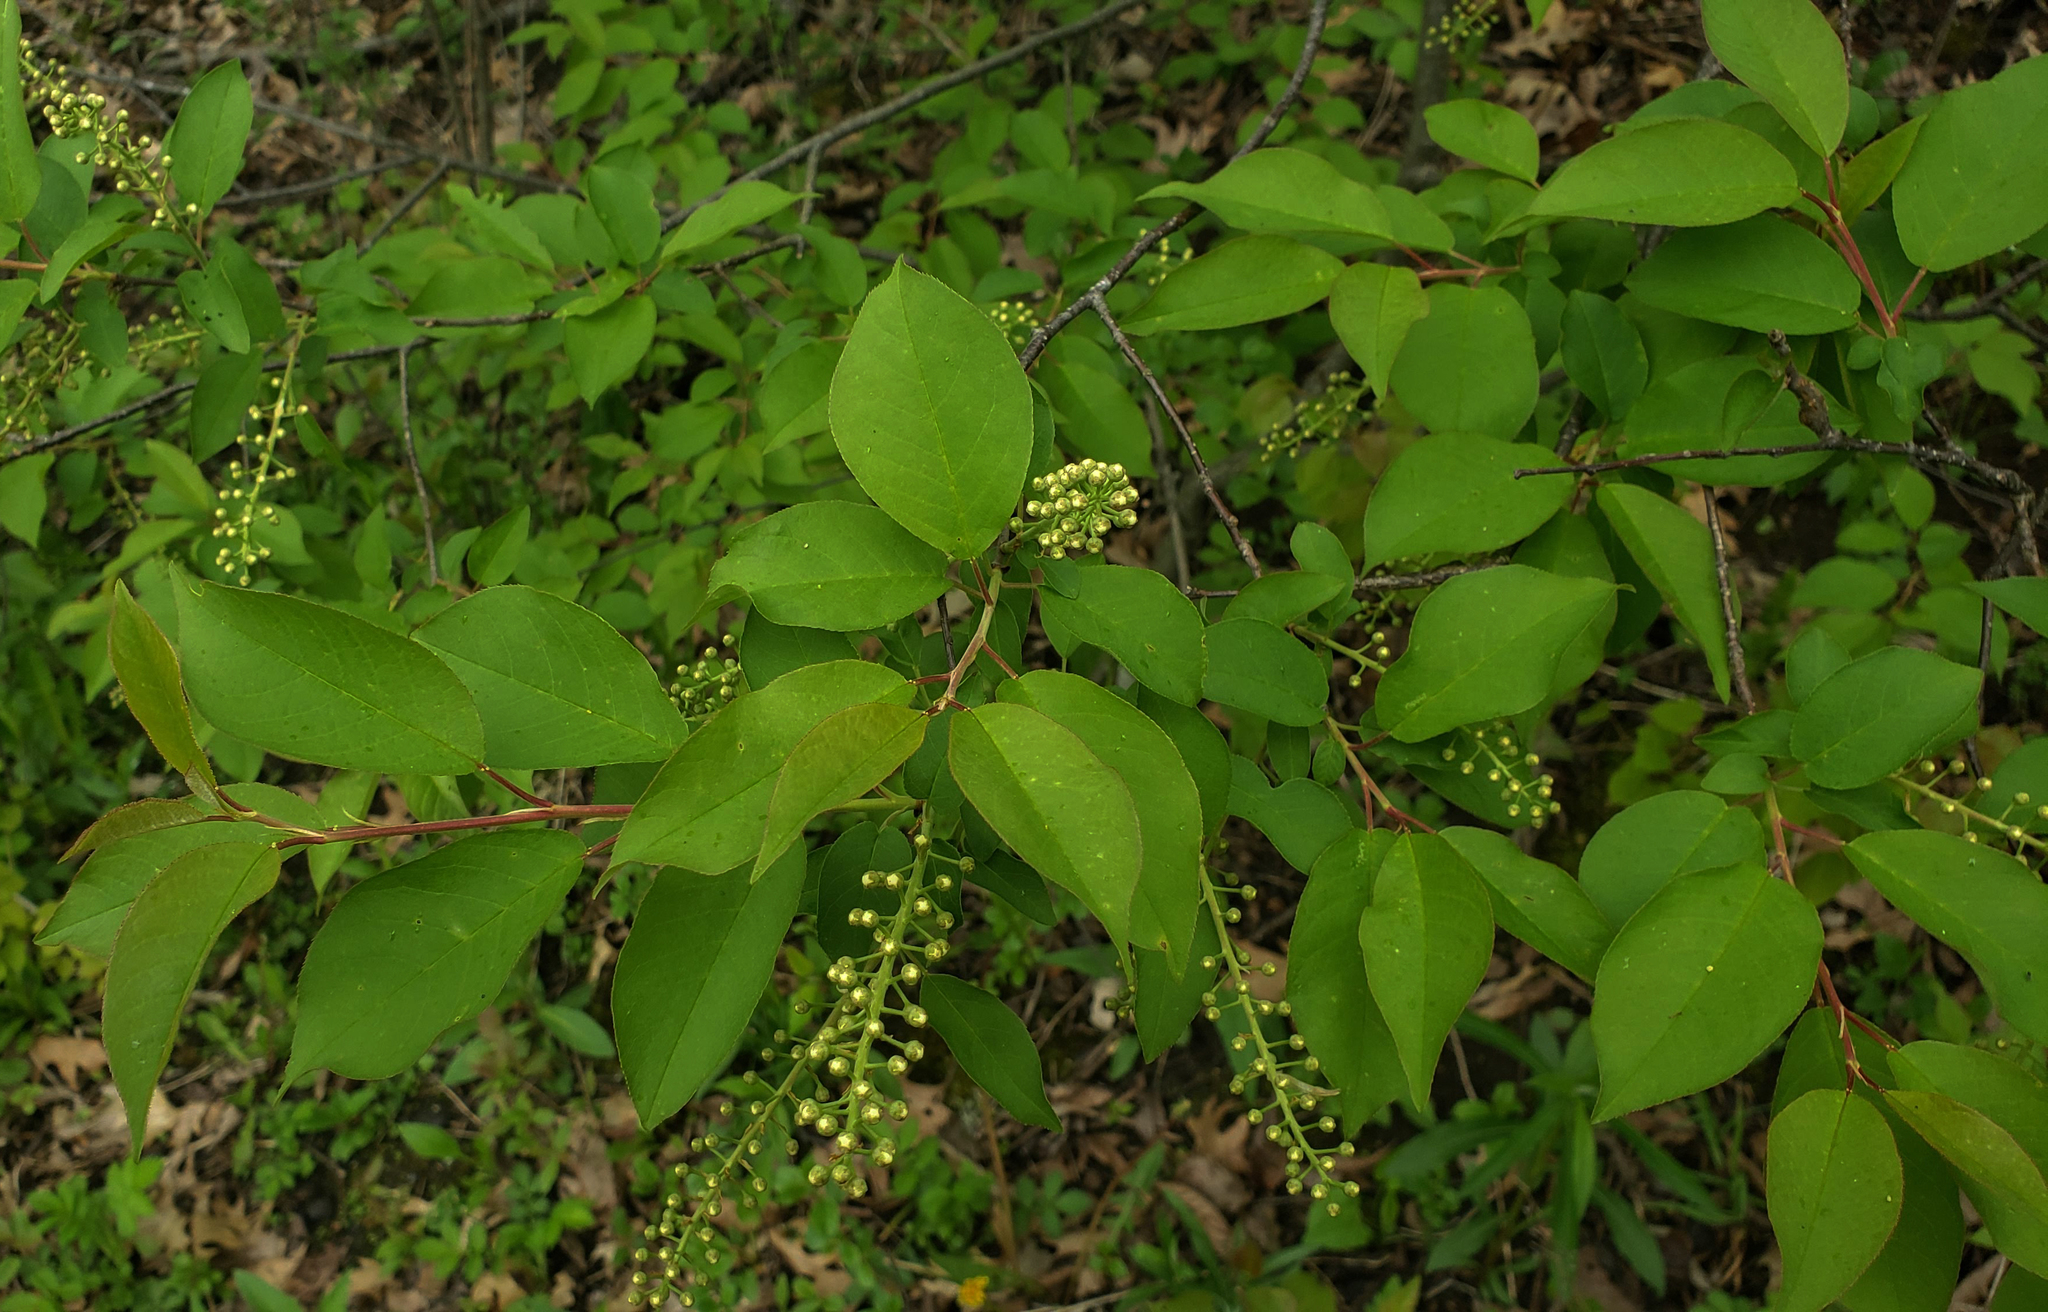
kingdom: Plantae
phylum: Tracheophyta
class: Magnoliopsida
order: Rosales
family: Rosaceae
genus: Prunus
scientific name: Prunus virginiana
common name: Chokecherry
